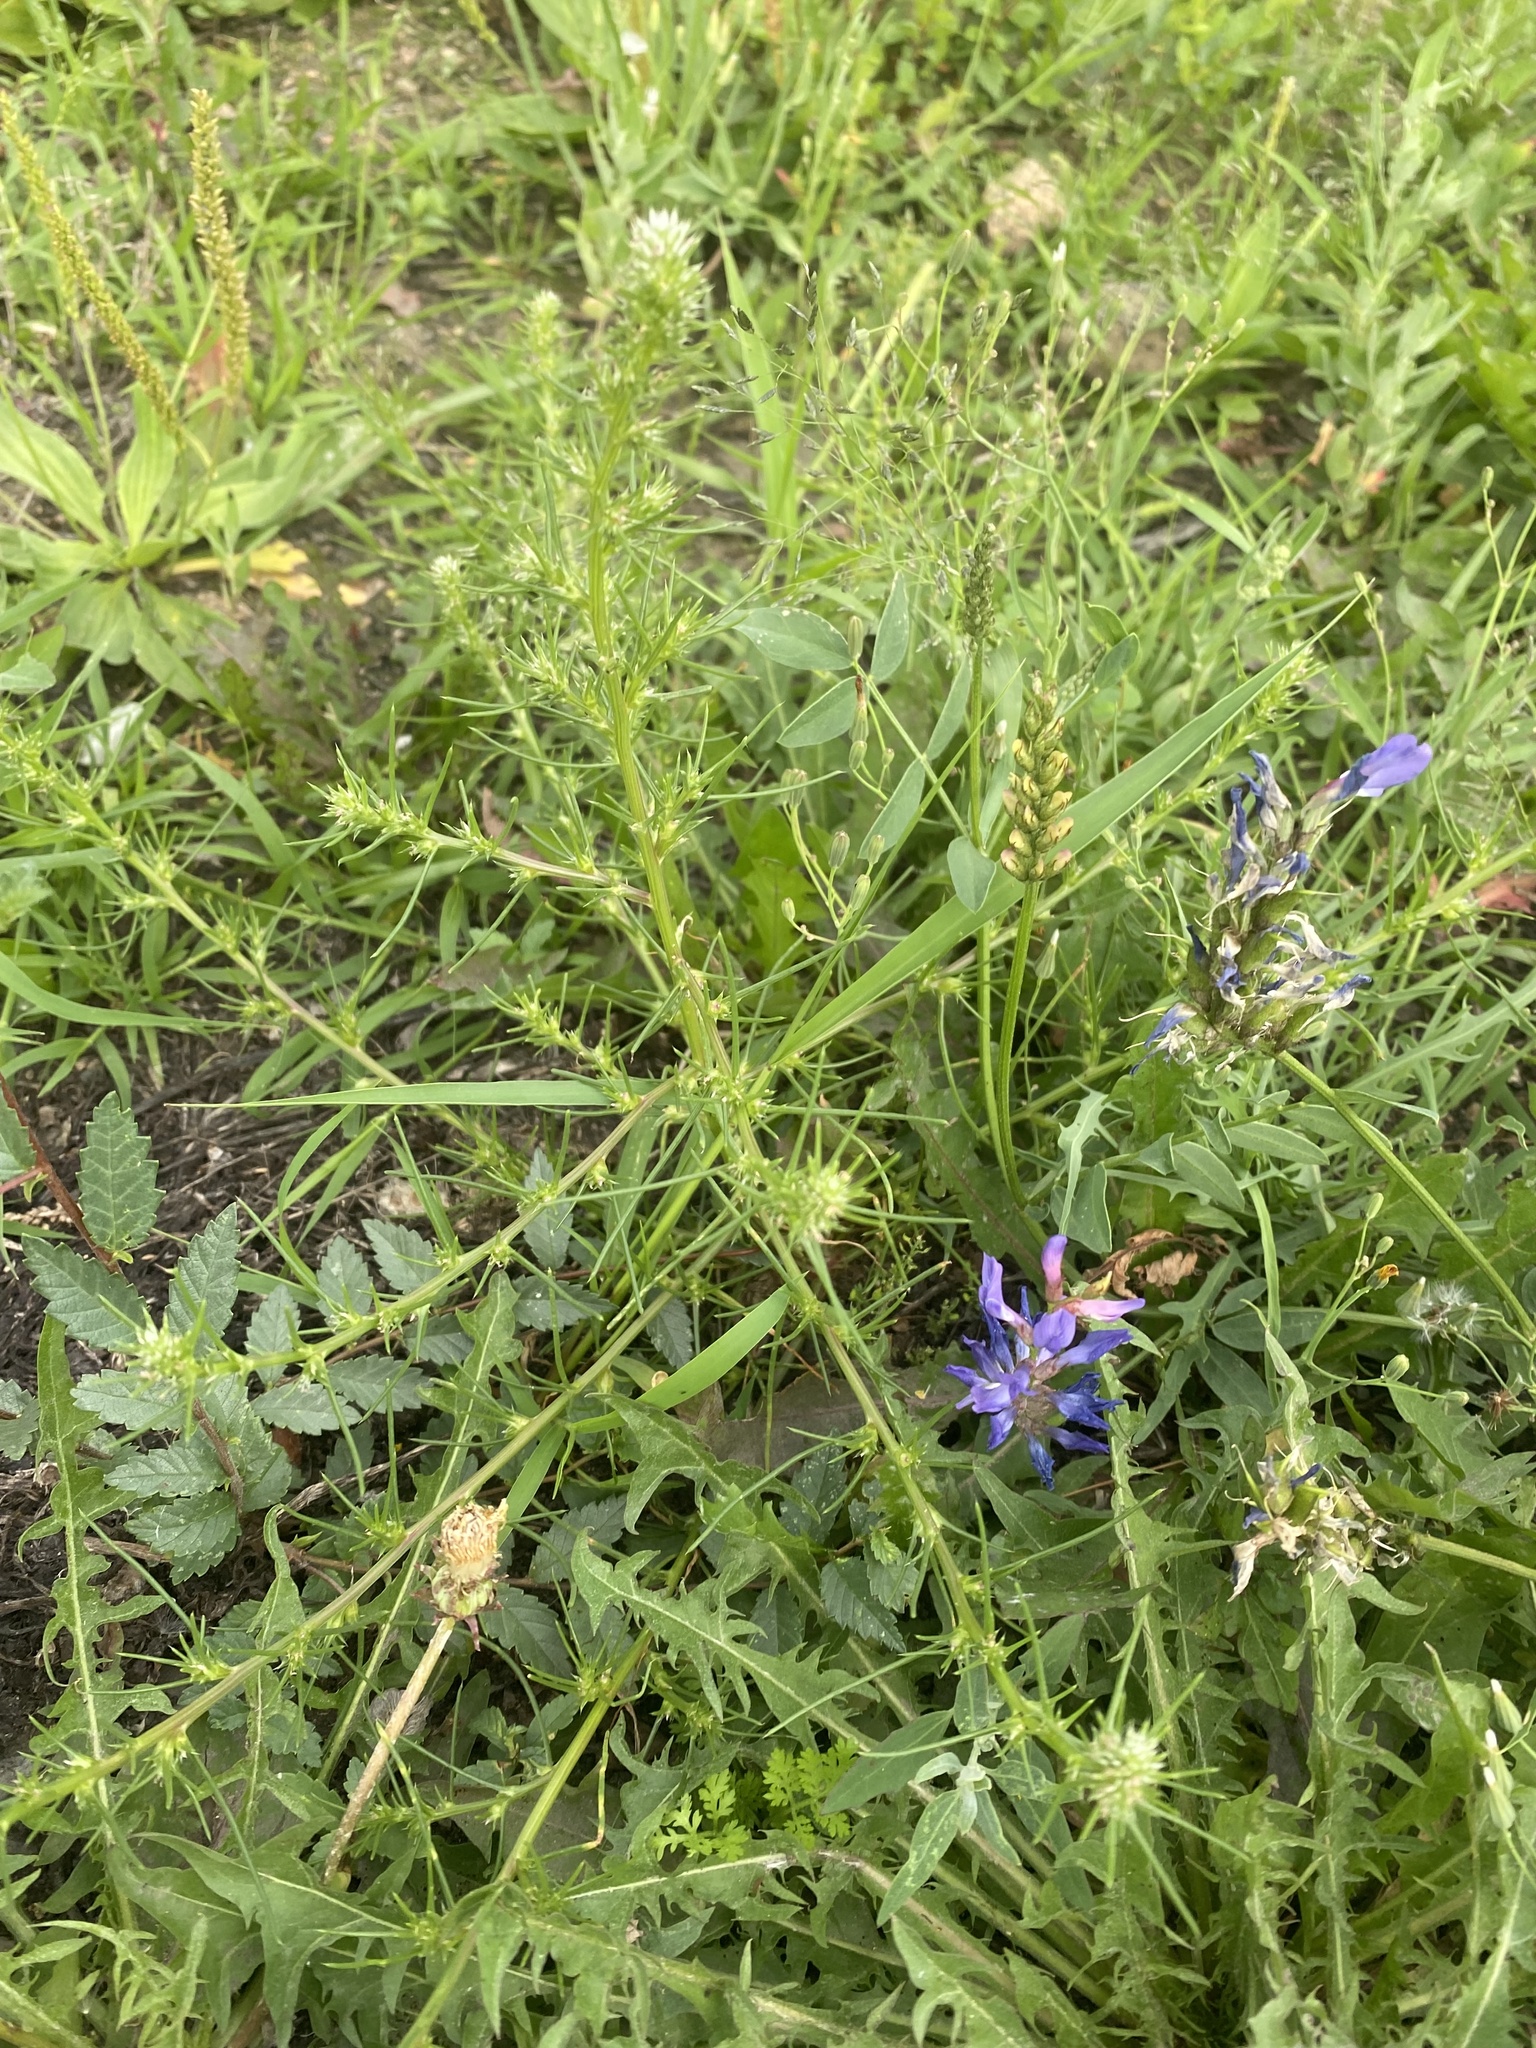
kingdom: Plantae
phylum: Tracheophyta
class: Magnoliopsida
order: Caryophyllales
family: Amaranthaceae
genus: Salsola
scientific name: Salsola collina
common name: Tumbleweed
